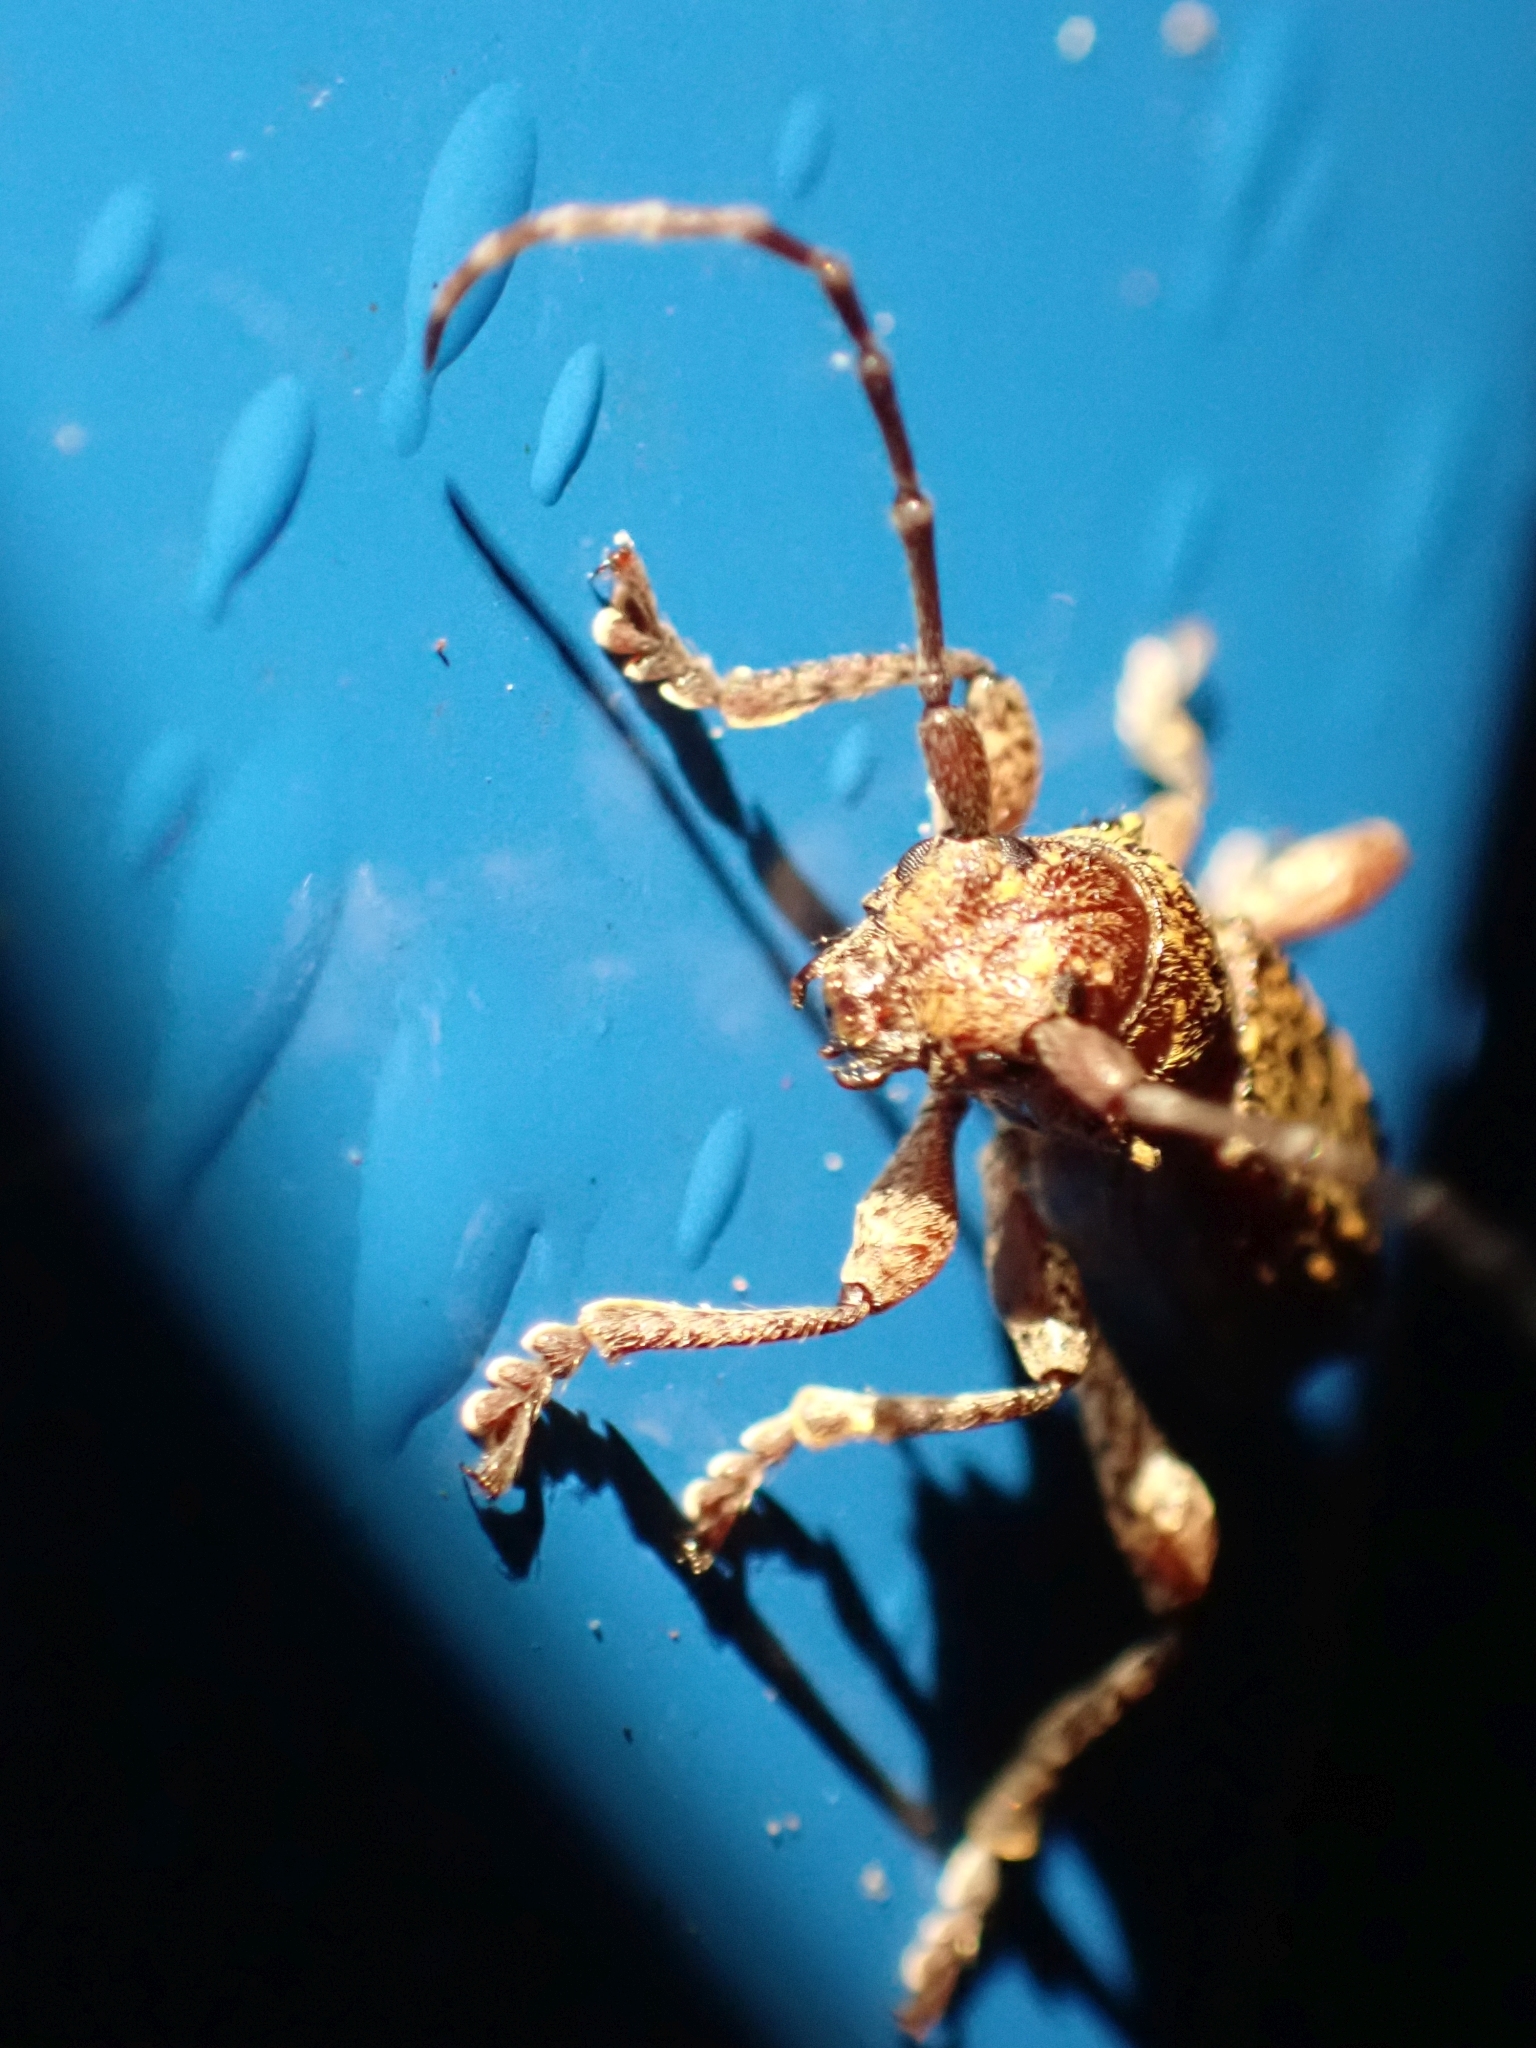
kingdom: Animalia
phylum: Arthropoda
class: Insecta
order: Coleoptera
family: Cerambycidae
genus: Plectrura
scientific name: Plectrura spinicauda
